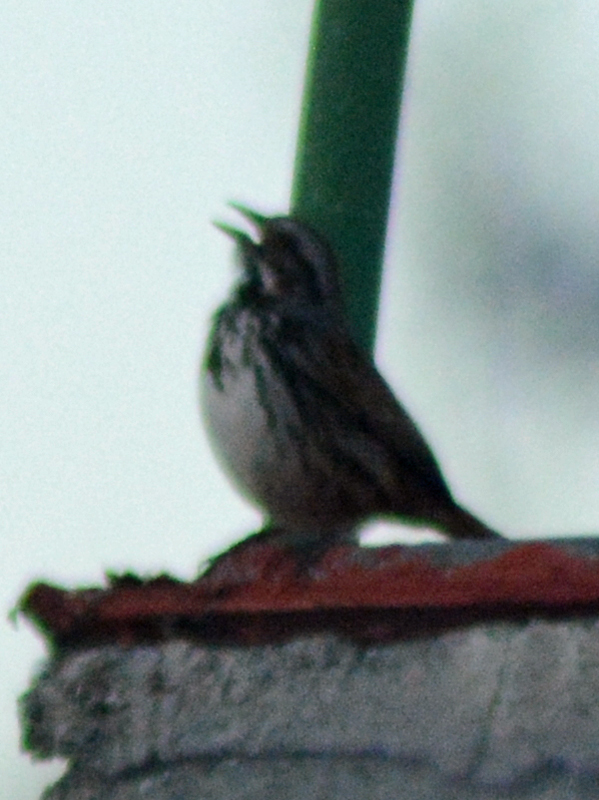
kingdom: Animalia
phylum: Chordata
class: Aves
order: Passeriformes
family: Passerellidae
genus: Melospiza
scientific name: Melospiza melodia
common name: Song sparrow
